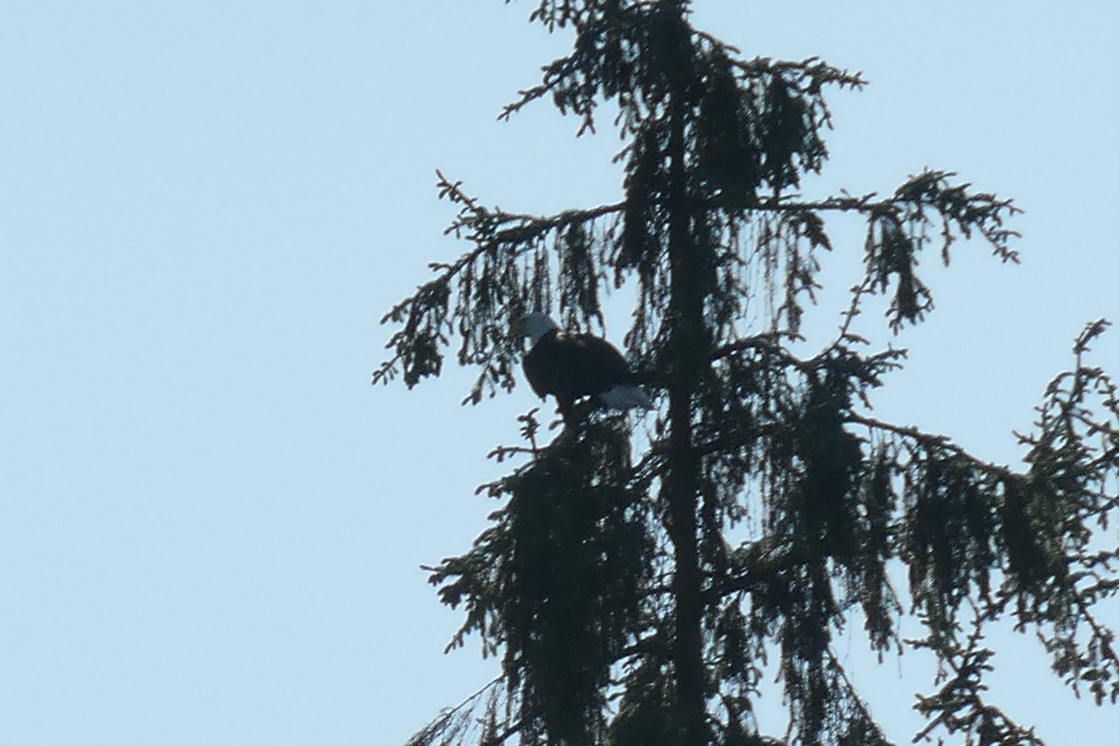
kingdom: Animalia
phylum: Chordata
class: Aves
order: Accipitriformes
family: Accipitridae
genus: Haliaeetus
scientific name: Haliaeetus leucocephalus
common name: Bald eagle
